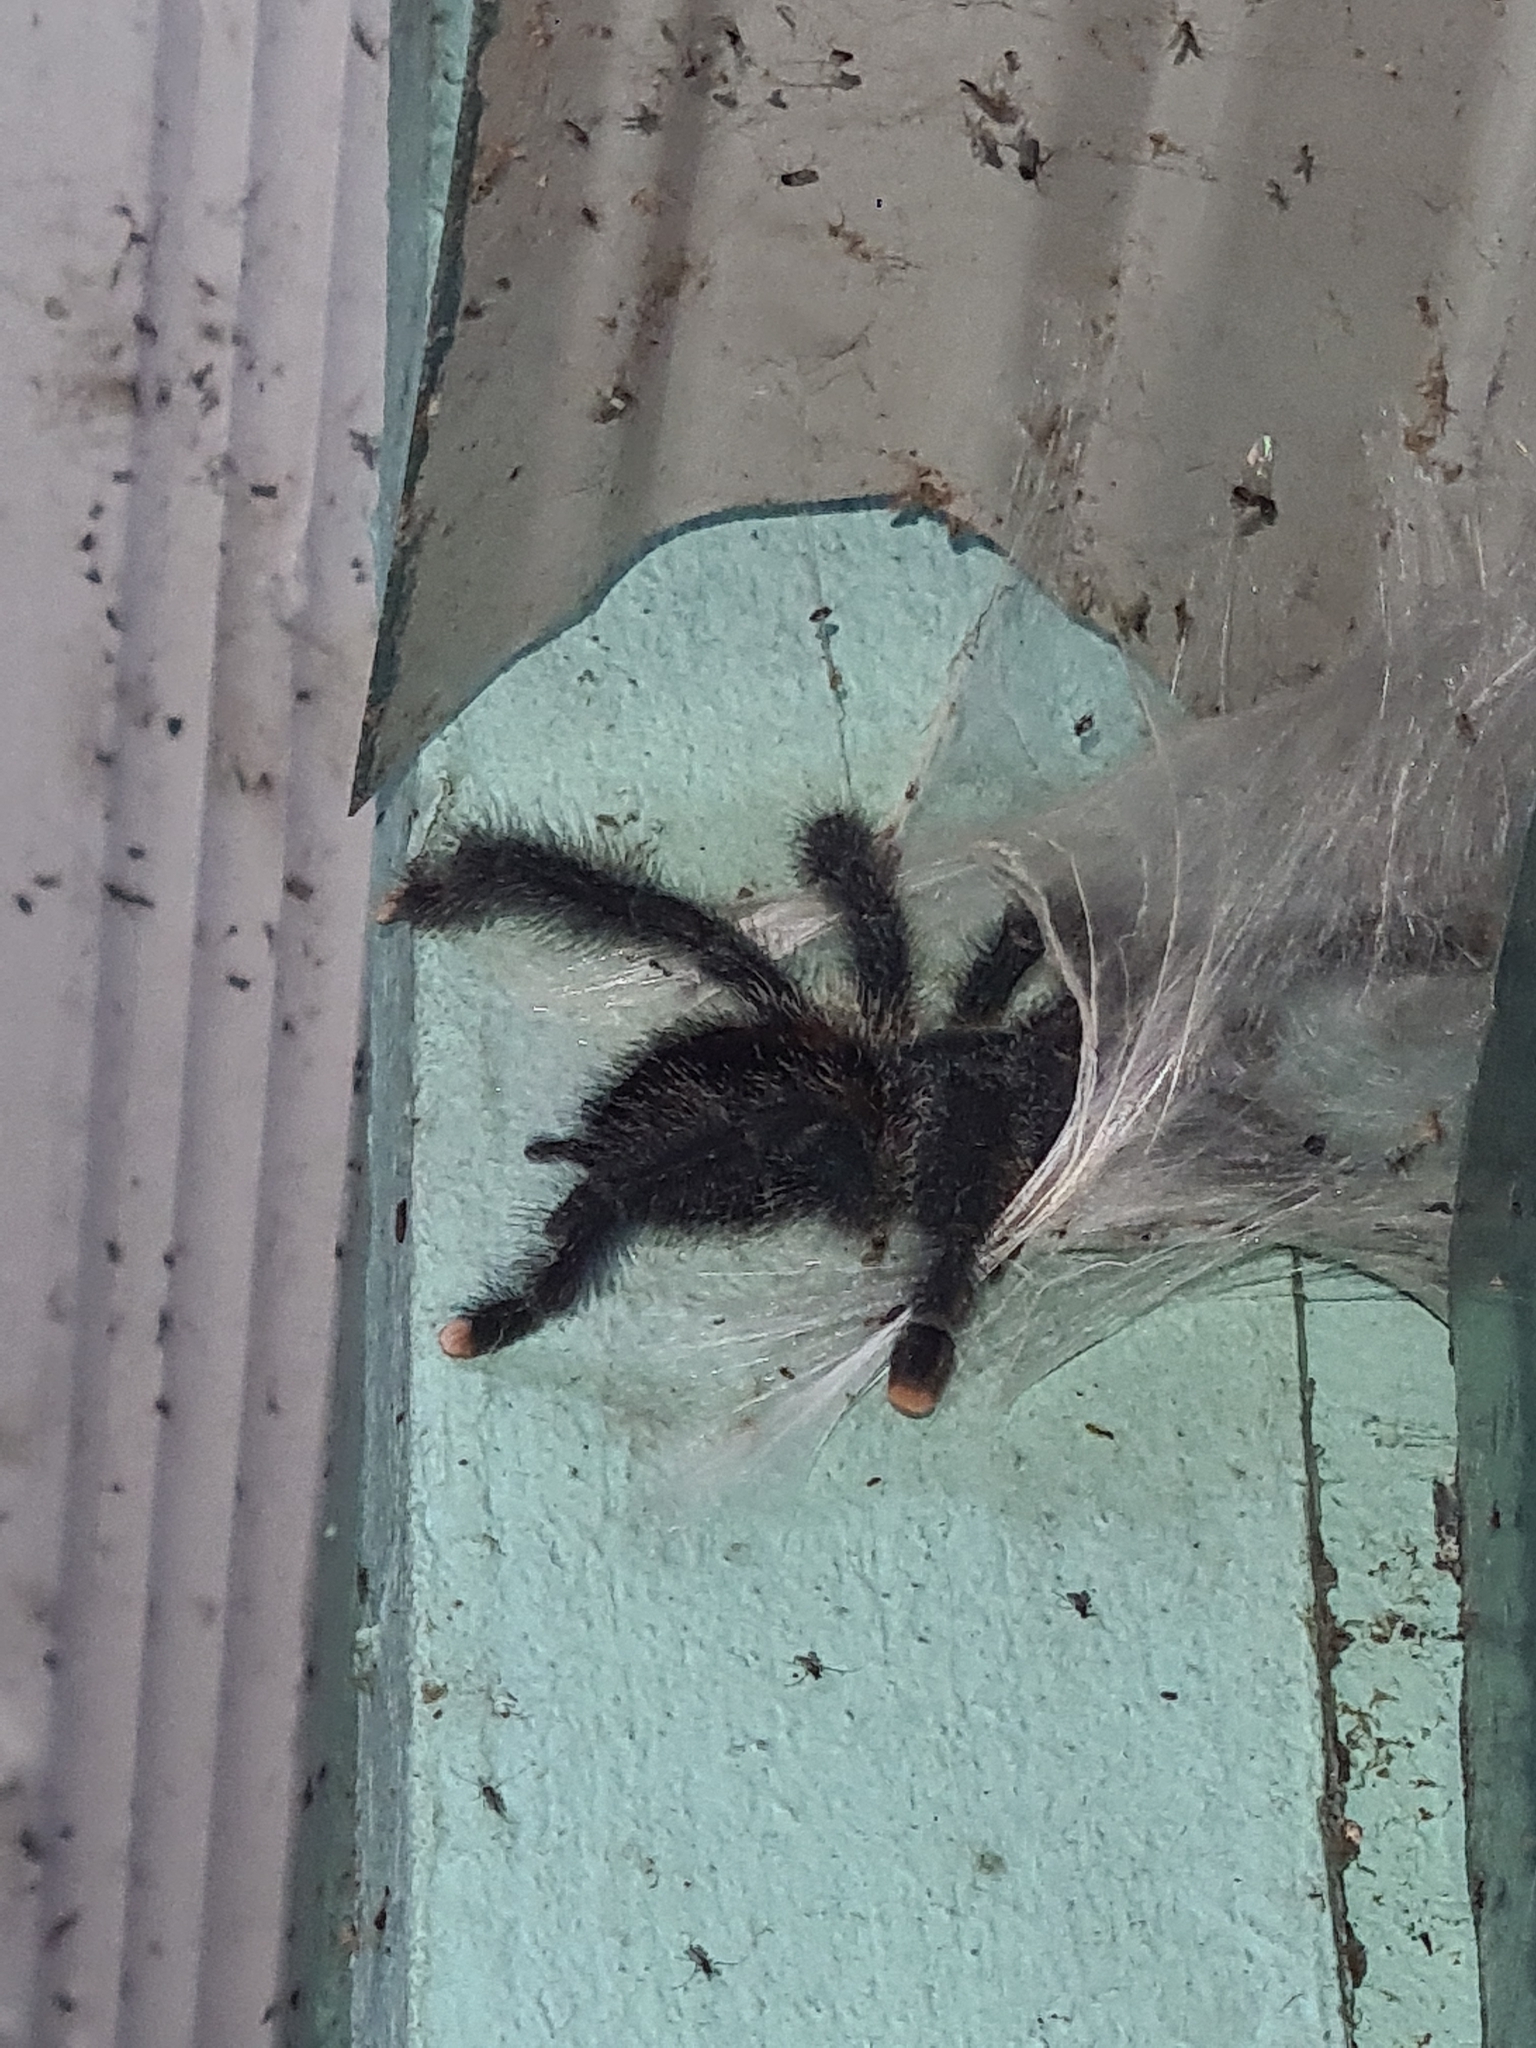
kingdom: Animalia
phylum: Arthropoda
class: Arachnida
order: Araneae
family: Theraphosidae
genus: Avicularia
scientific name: Avicularia avicularia
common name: Tarantula spiders
